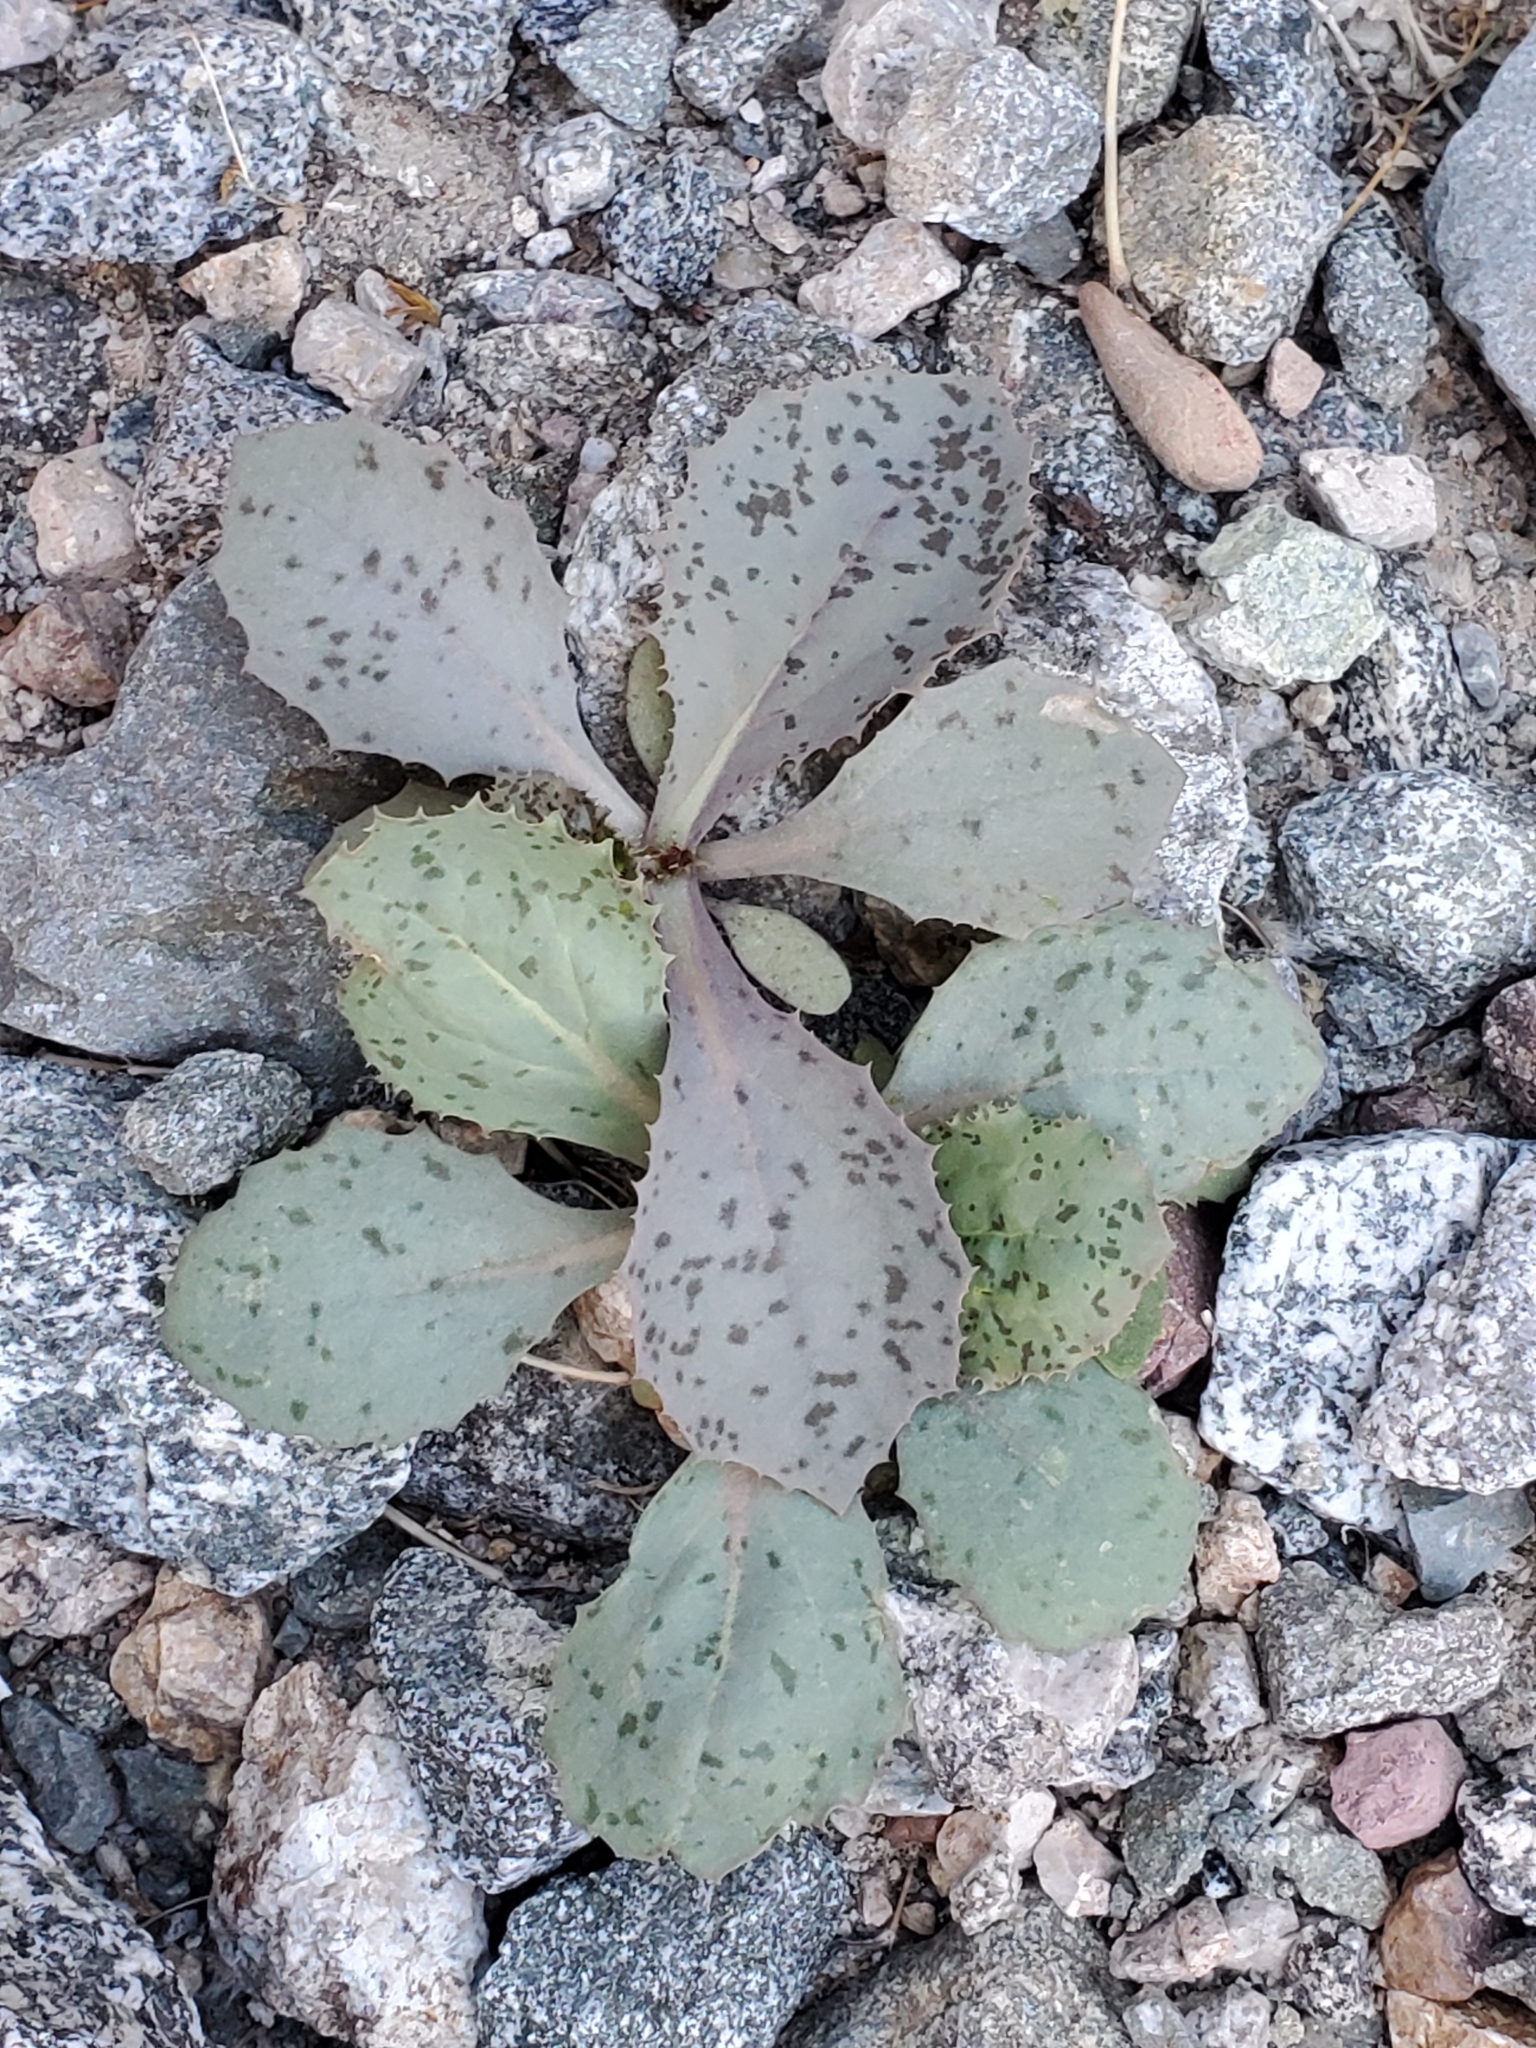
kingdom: Plantae
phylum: Tracheophyta
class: Magnoliopsida
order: Asterales
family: Asteraceae
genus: Atrichoseris
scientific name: Atrichoseris platyphylla
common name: Tobaccoweed
